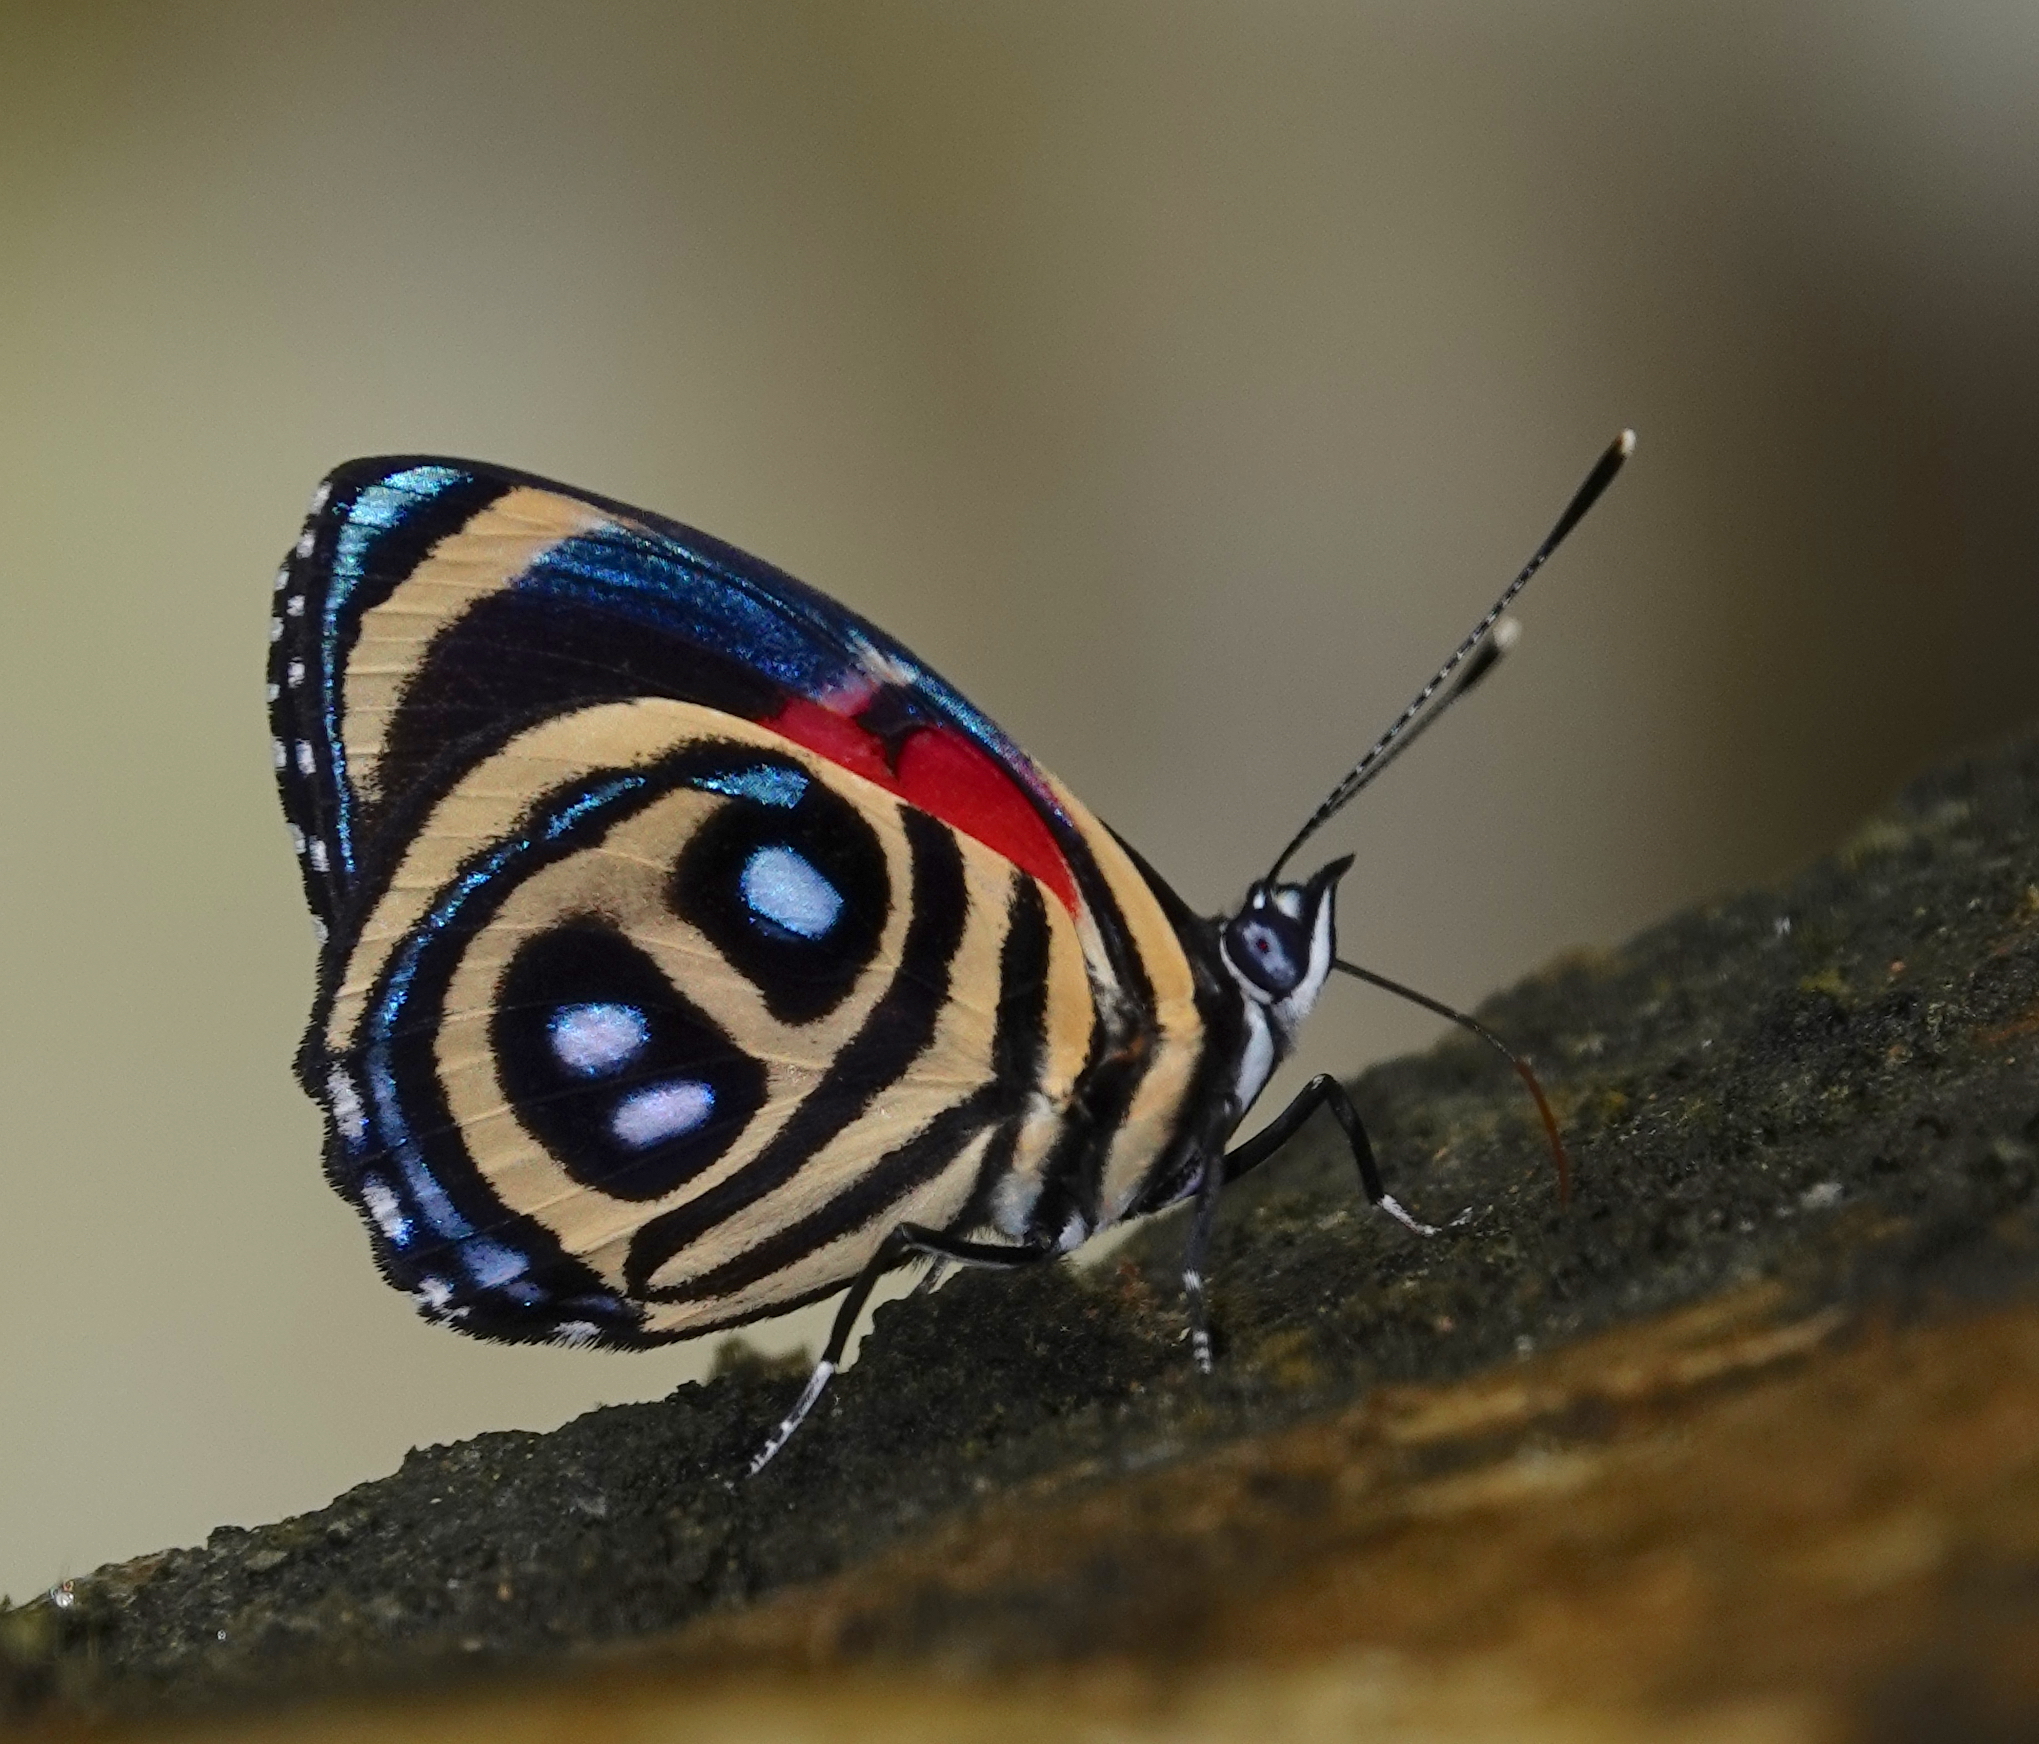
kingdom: Animalia
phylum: Arthropoda
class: Insecta
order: Lepidoptera
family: Nymphalidae
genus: Catagramma
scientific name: Catagramma pyracmon
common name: Google-eyed eighty-eight
